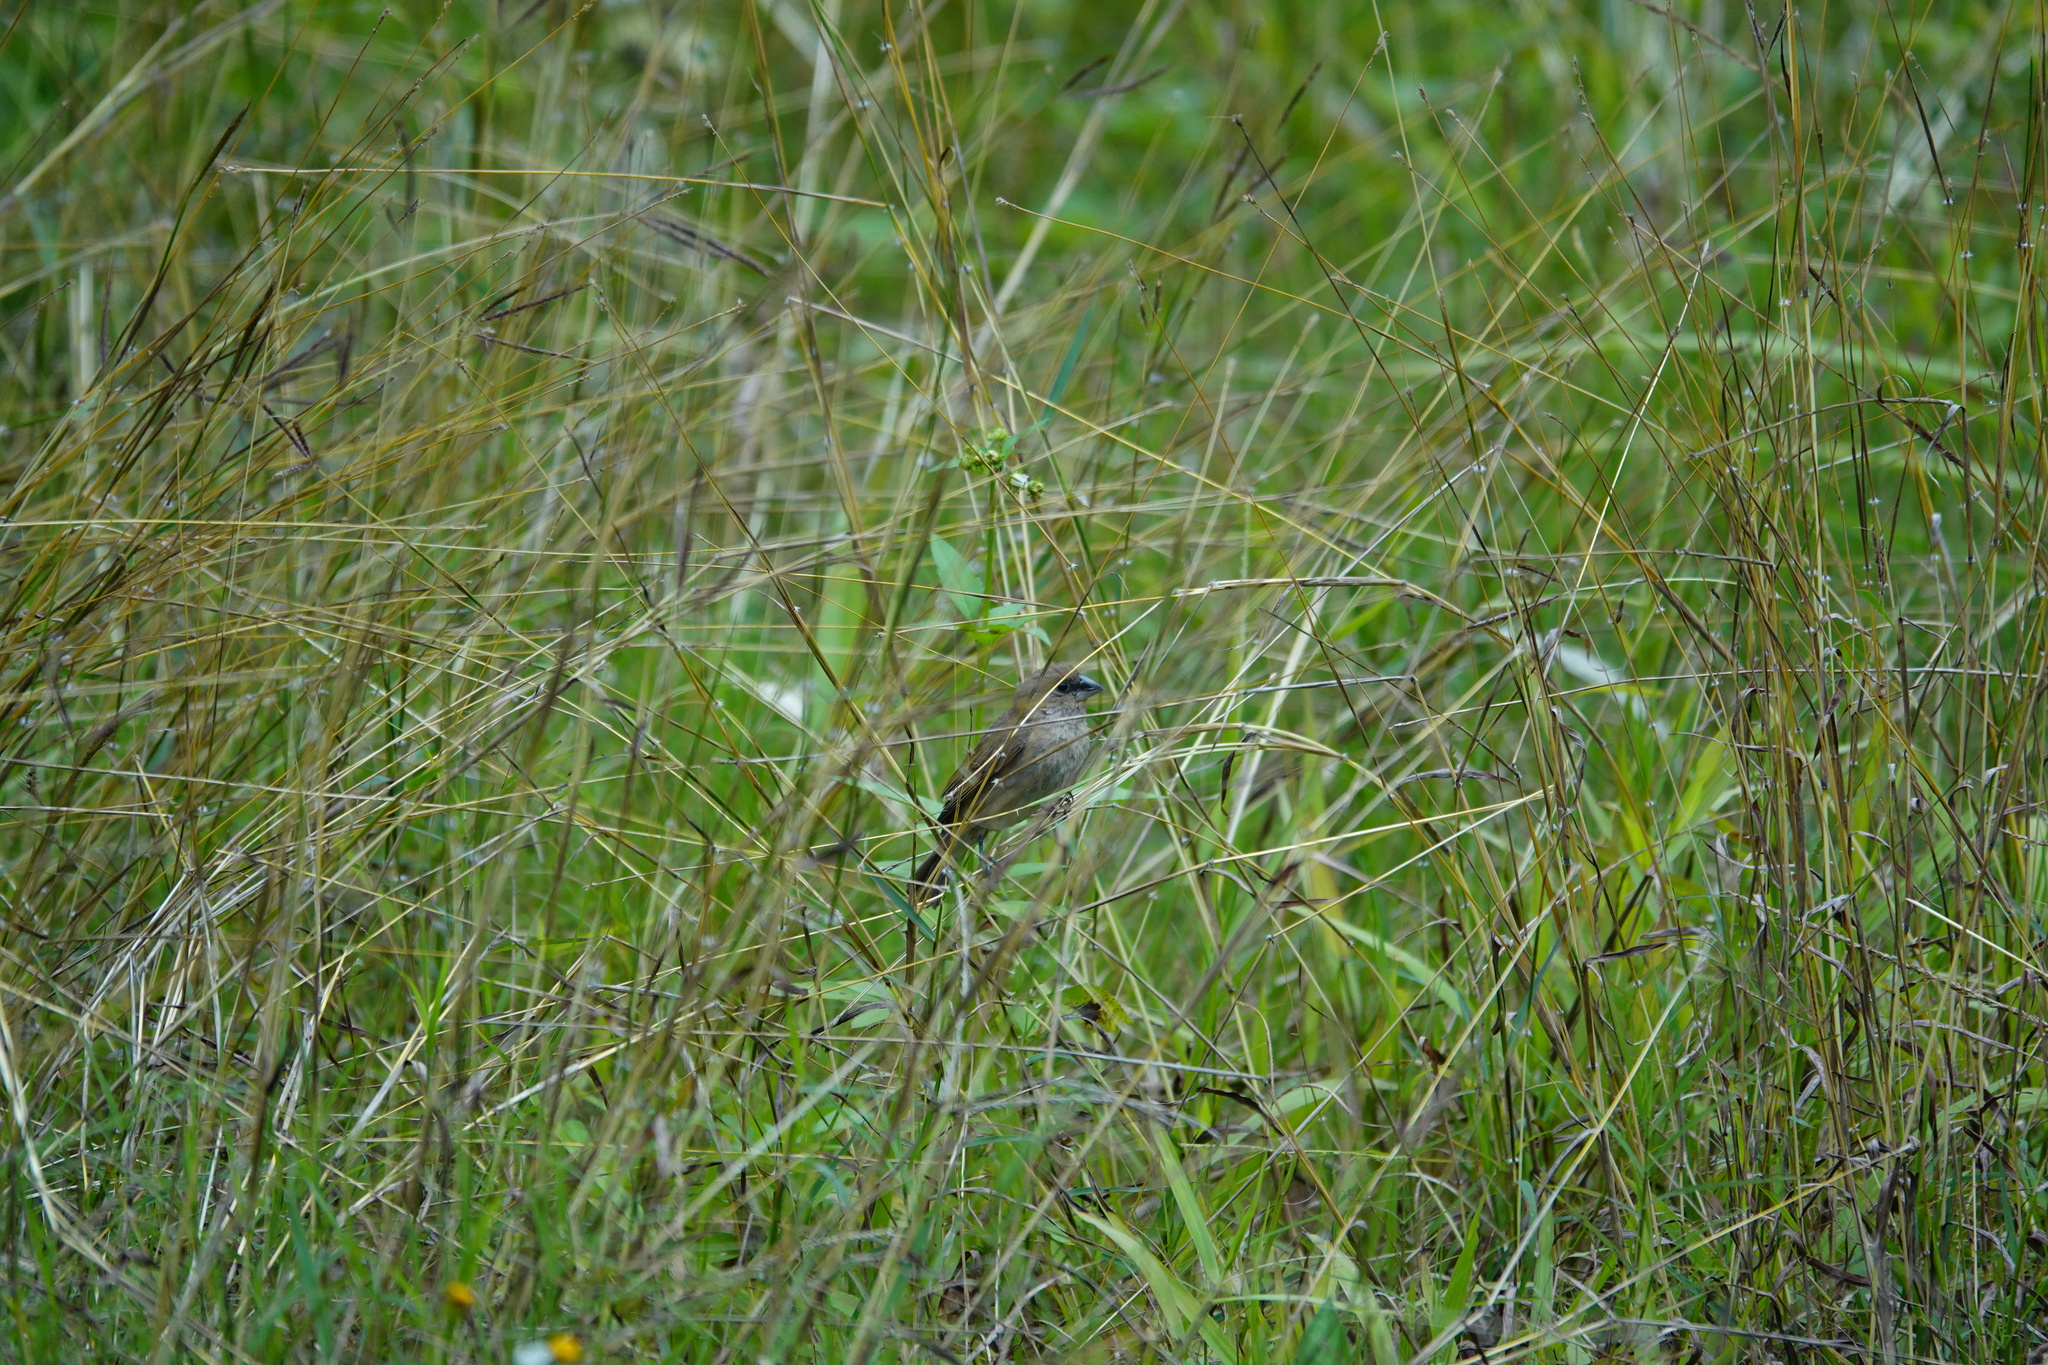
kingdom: Animalia
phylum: Chordata
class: Aves
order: Passeriformes
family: Estrildidae
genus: Lonchura
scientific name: Lonchura punctulata
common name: Scaly-breasted munia
